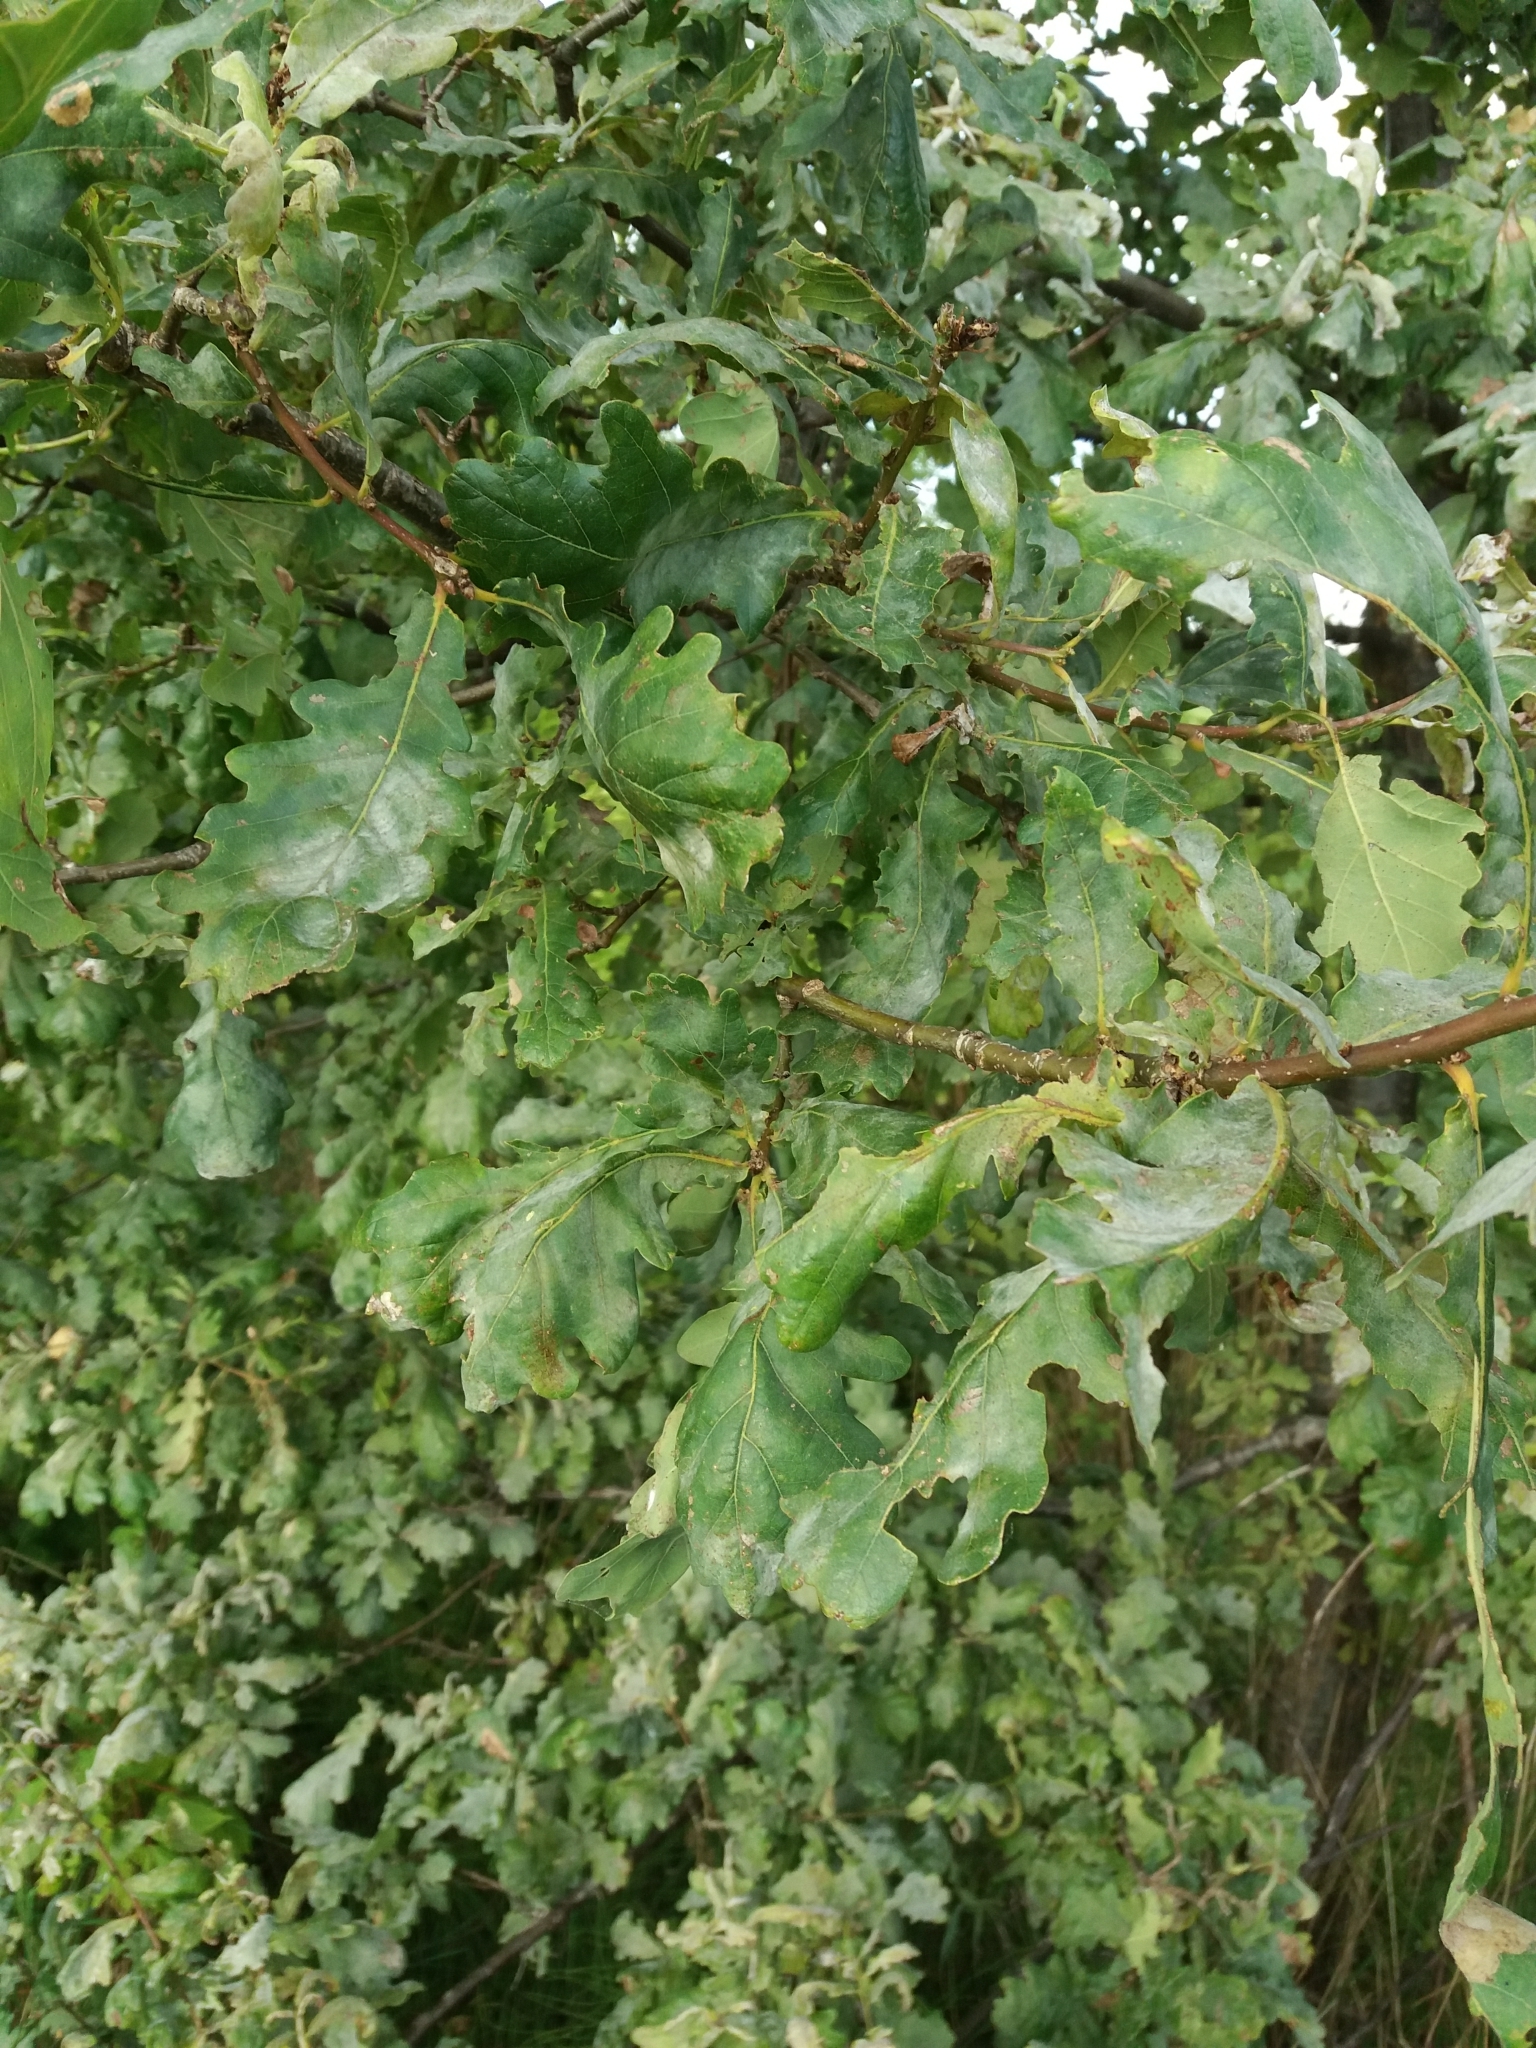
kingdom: Plantae
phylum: Tracheophyta
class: Magnoliopsida
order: Fagales
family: Fagaceae
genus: Quercus
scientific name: Quercus robur
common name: Pedunculate oak
